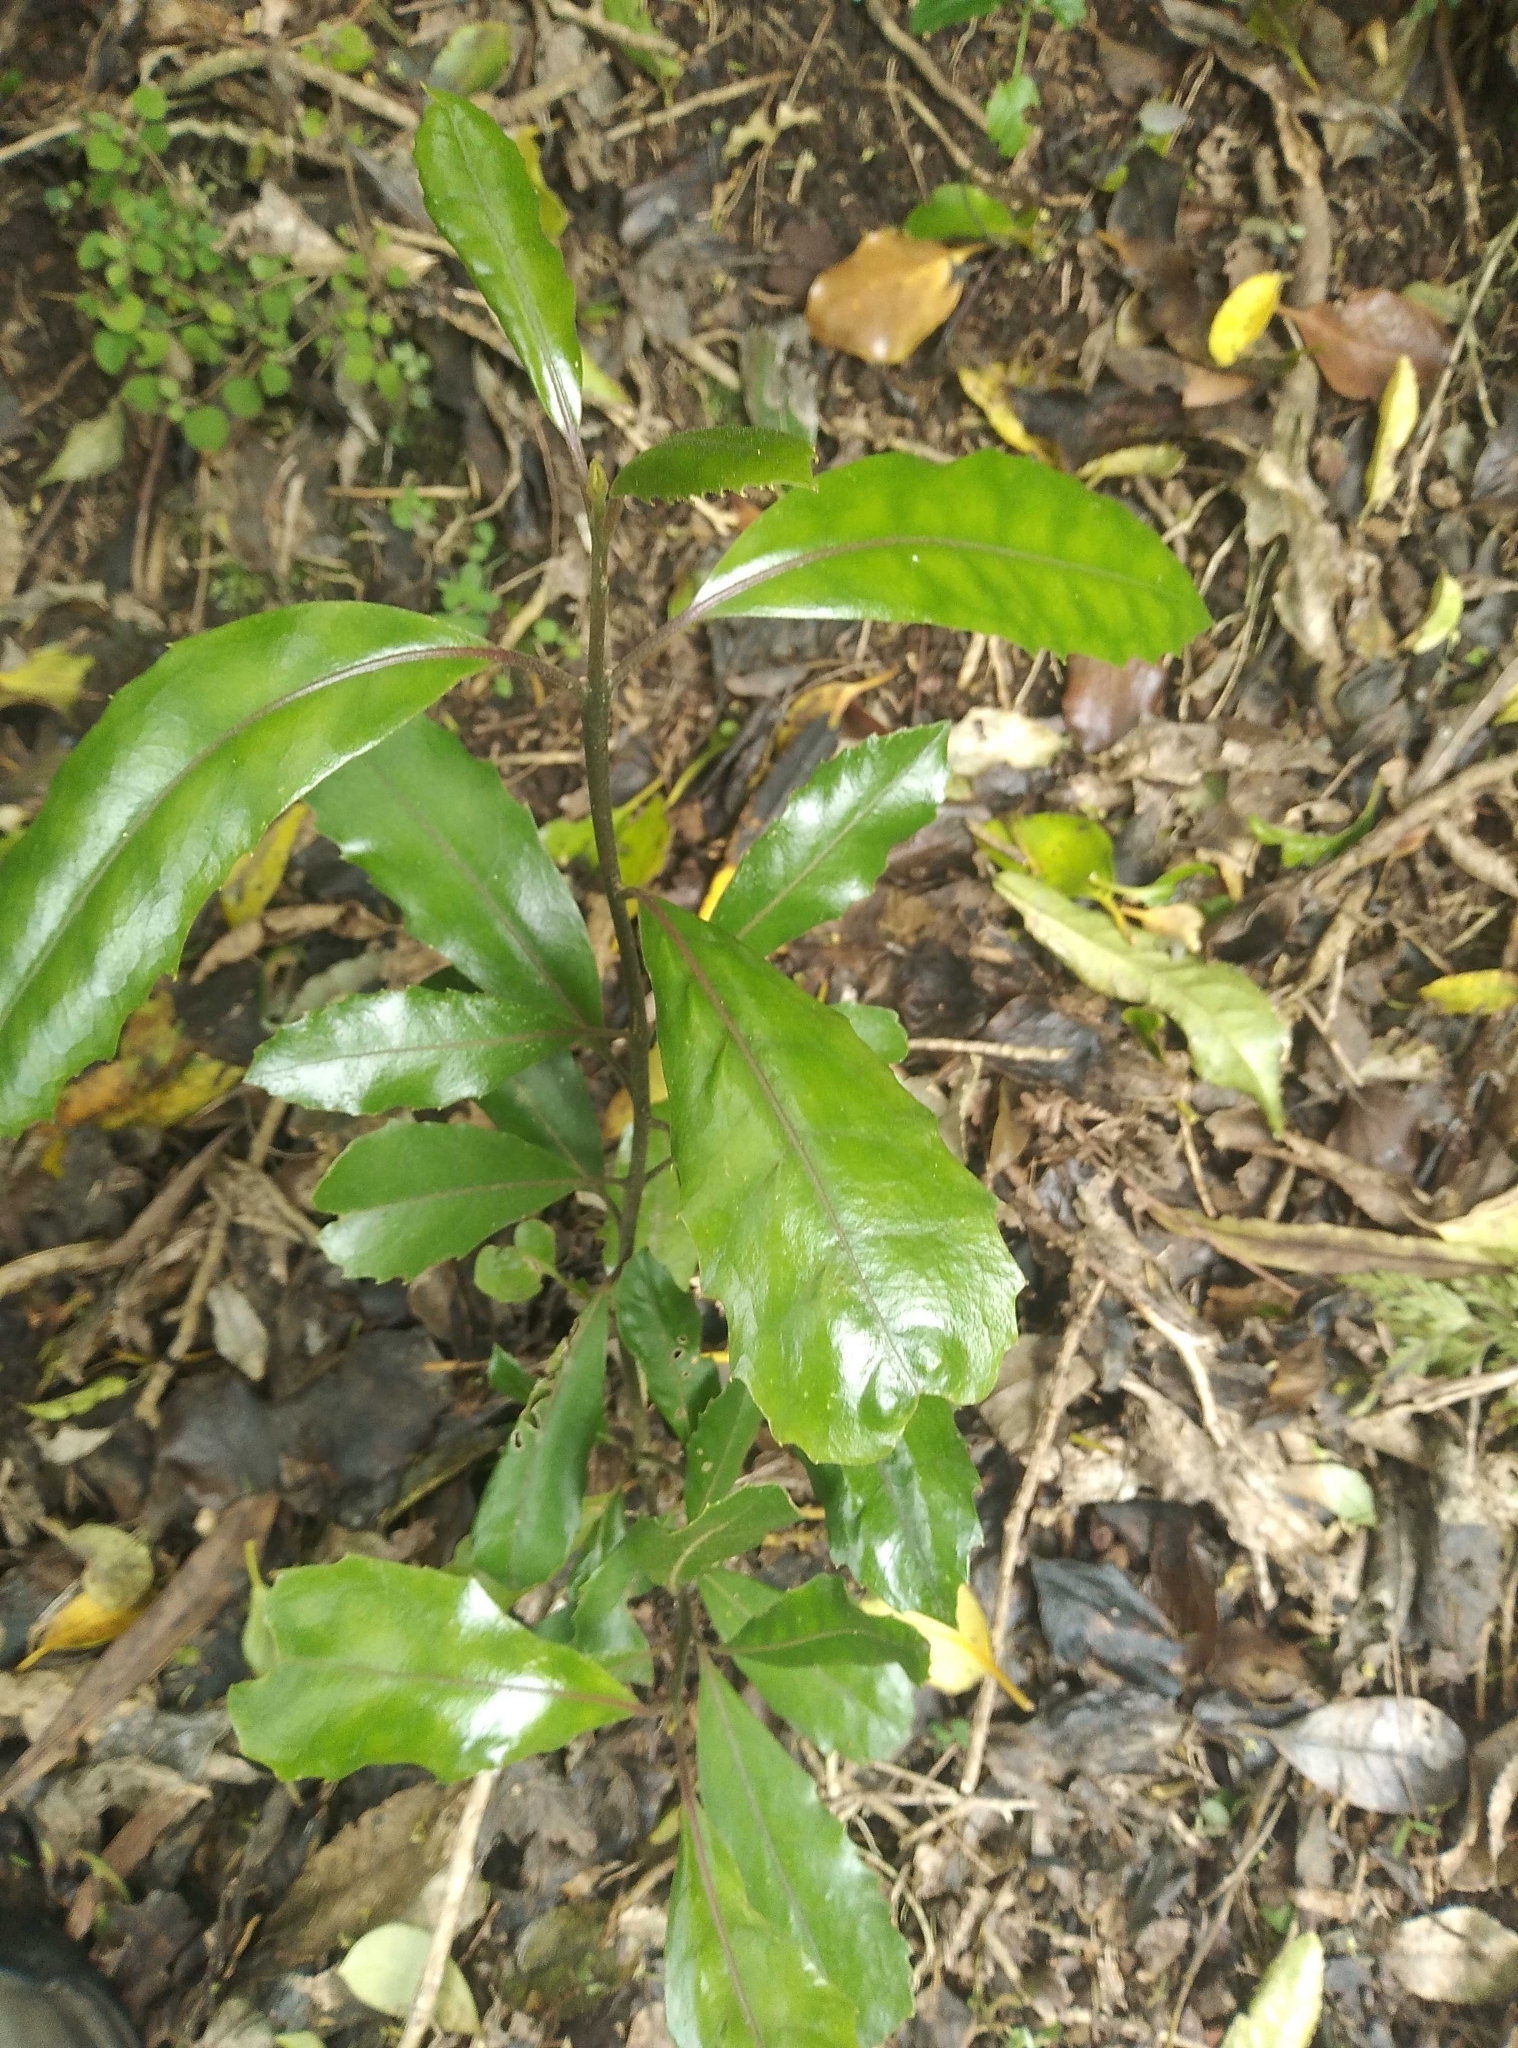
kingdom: Plantae
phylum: Tracheophyta
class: Magnoliopsida
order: Laurales
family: Monimiaceae
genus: Hedycarya
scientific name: Hedycarya arborea
